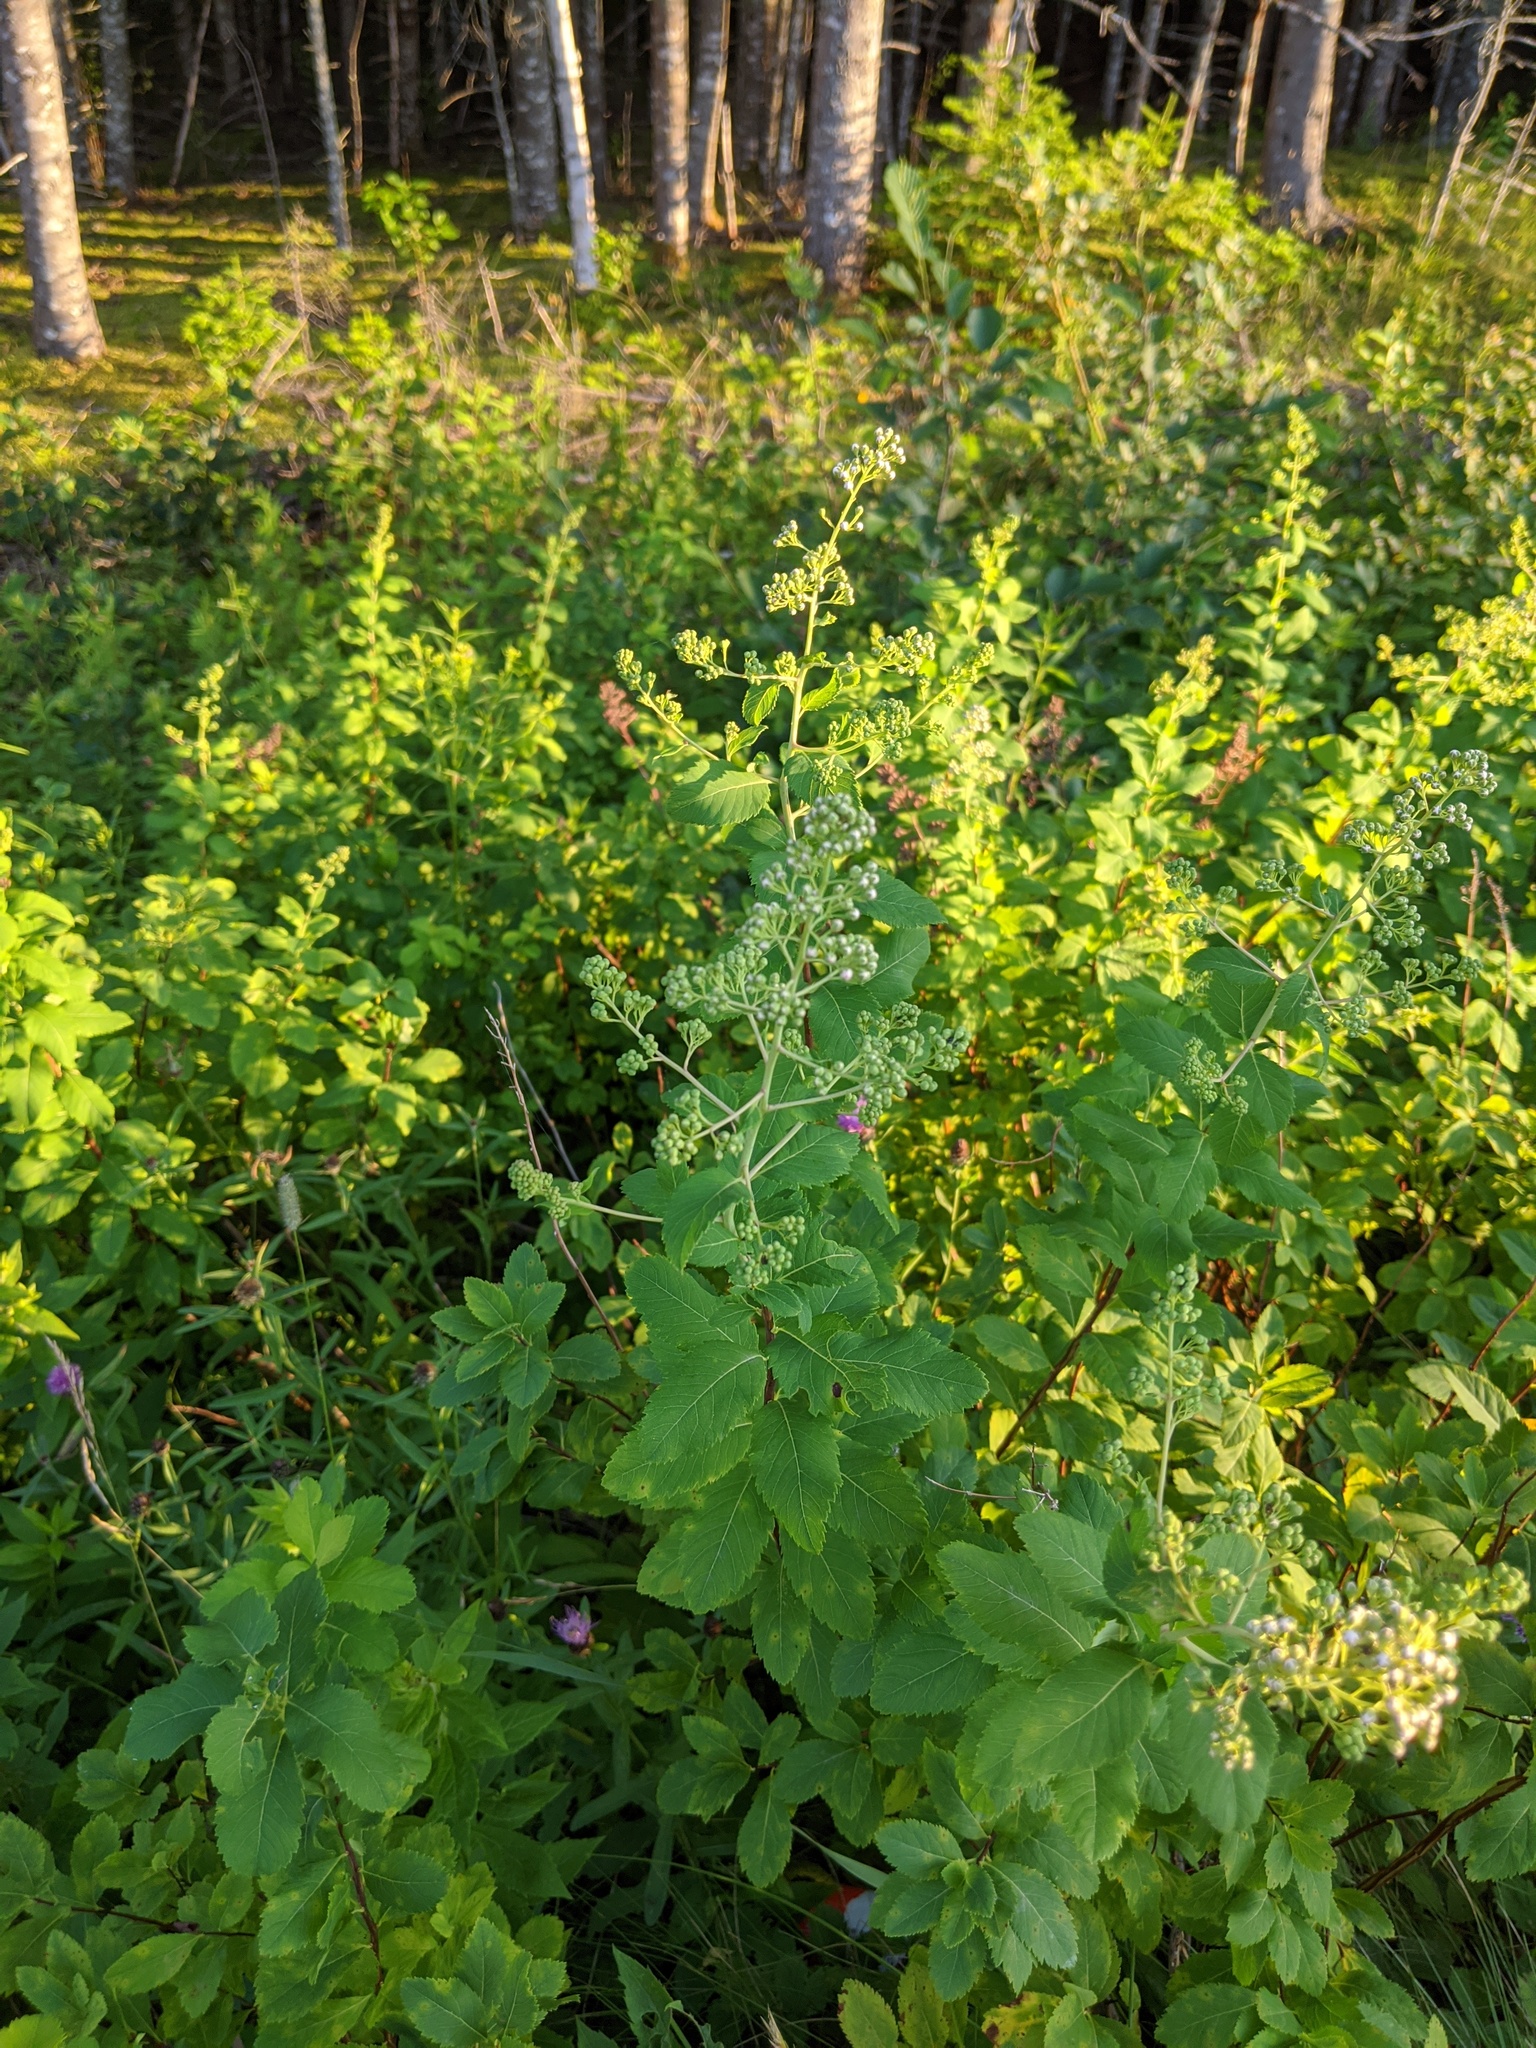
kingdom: Plantae
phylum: Tracheophyta
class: Magnoliopsida
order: Rosales
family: Rosaceae
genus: Spiraea
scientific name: Spiraea alba
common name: Pale bridewort
